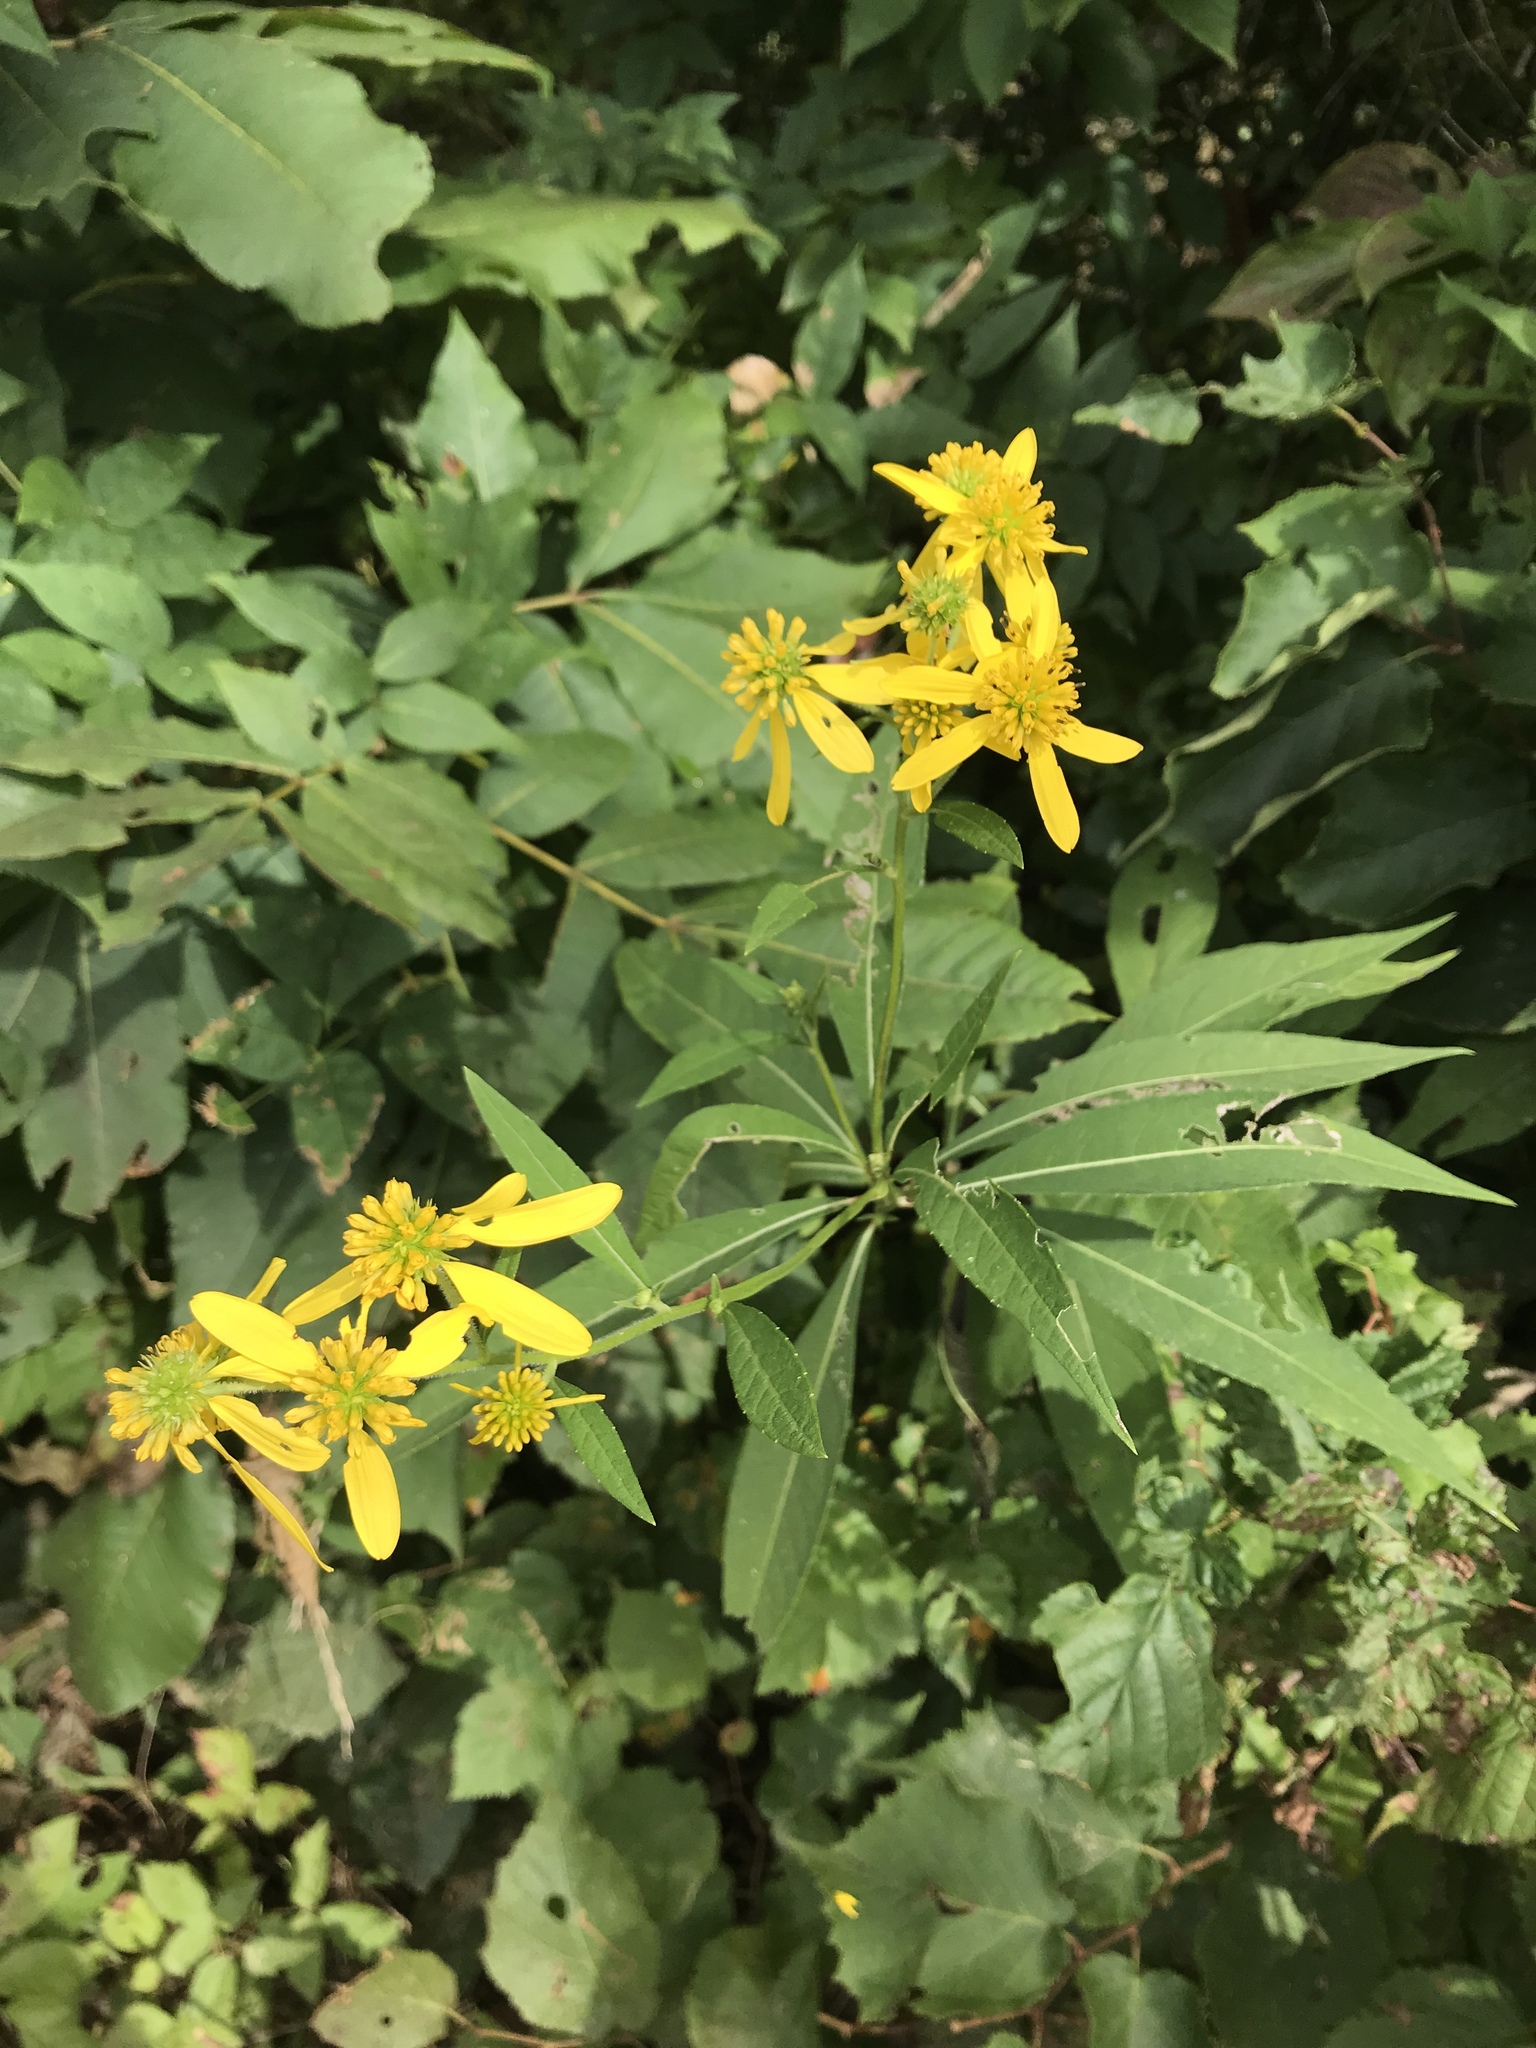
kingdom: Plantae
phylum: Tracheophyta
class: Magnoliopsida
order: Asterales
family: Asteraceae
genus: Verbesina
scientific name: Verbesina alternifolia
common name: Wingstem
